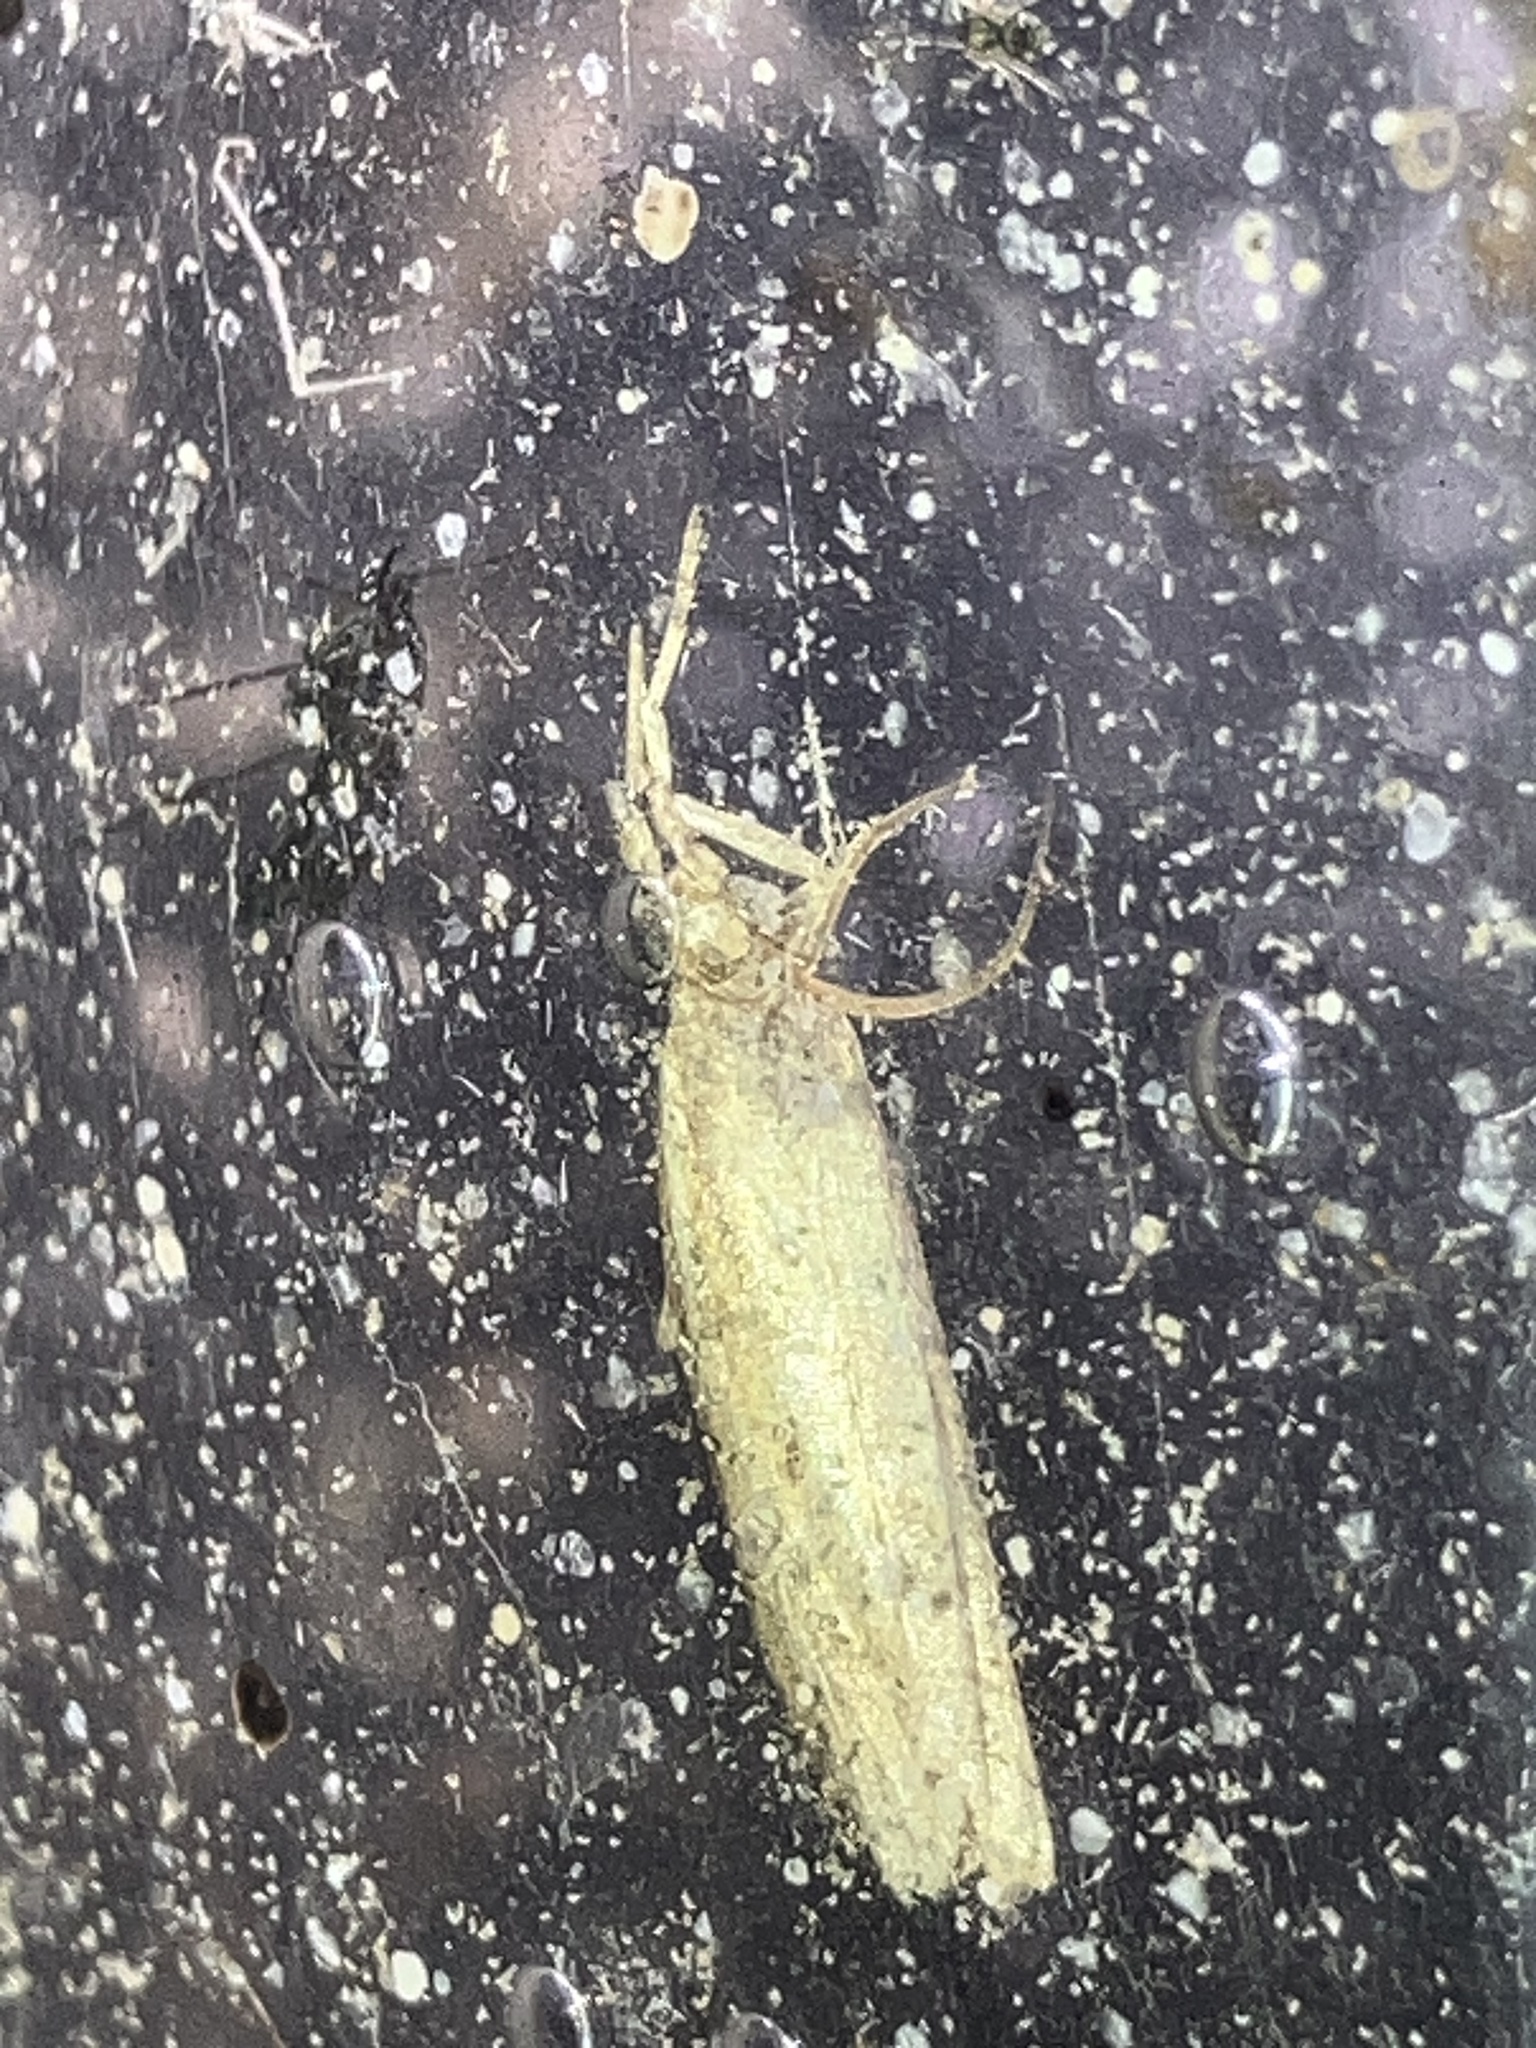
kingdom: Animalia
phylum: Arthropoda
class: Insecta
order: Lepidoptera
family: Pyralidae
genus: Phycitinae
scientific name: Phycitinae
